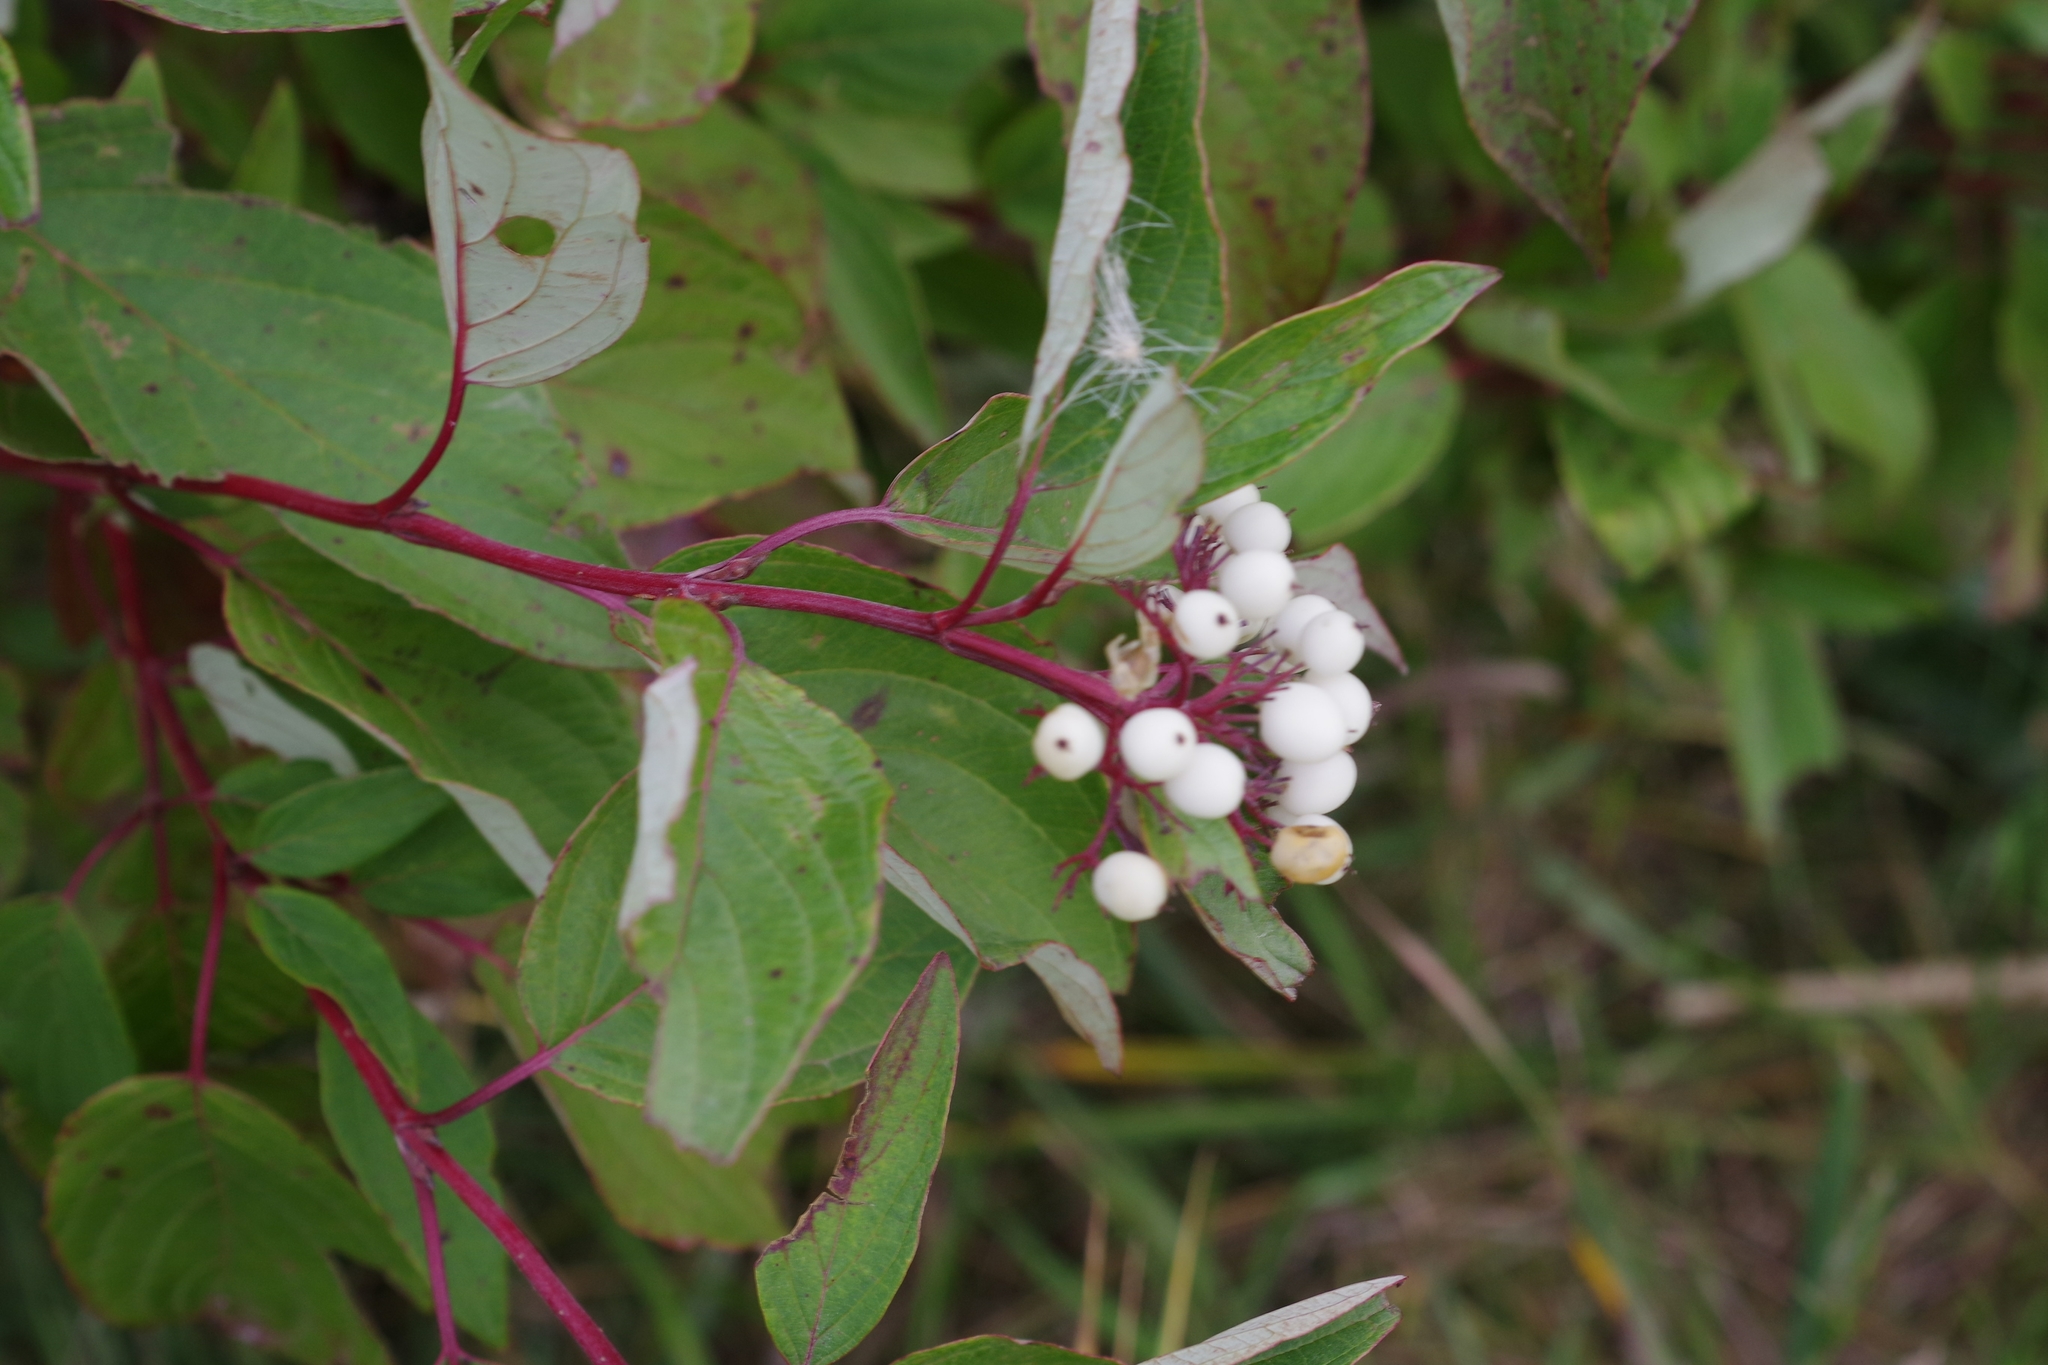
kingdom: Plantae
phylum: Tracheophyta
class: Magnoliopsida
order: Cornales
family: Cornaceae
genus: Cornus
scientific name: Cornus sericea
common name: Red-osier dogwood
